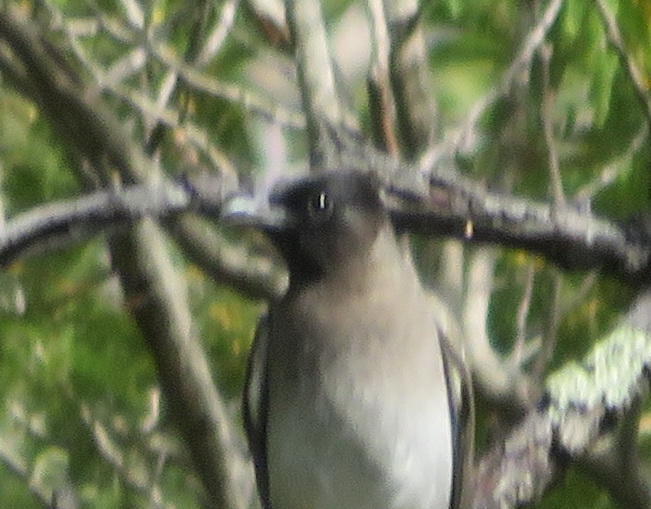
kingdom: Animalia
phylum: Chordata
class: Aves
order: Passeriformes
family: Pycnonotidae
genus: Pycnonotus
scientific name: Pycnonotus barbatus
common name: Common bulbul
